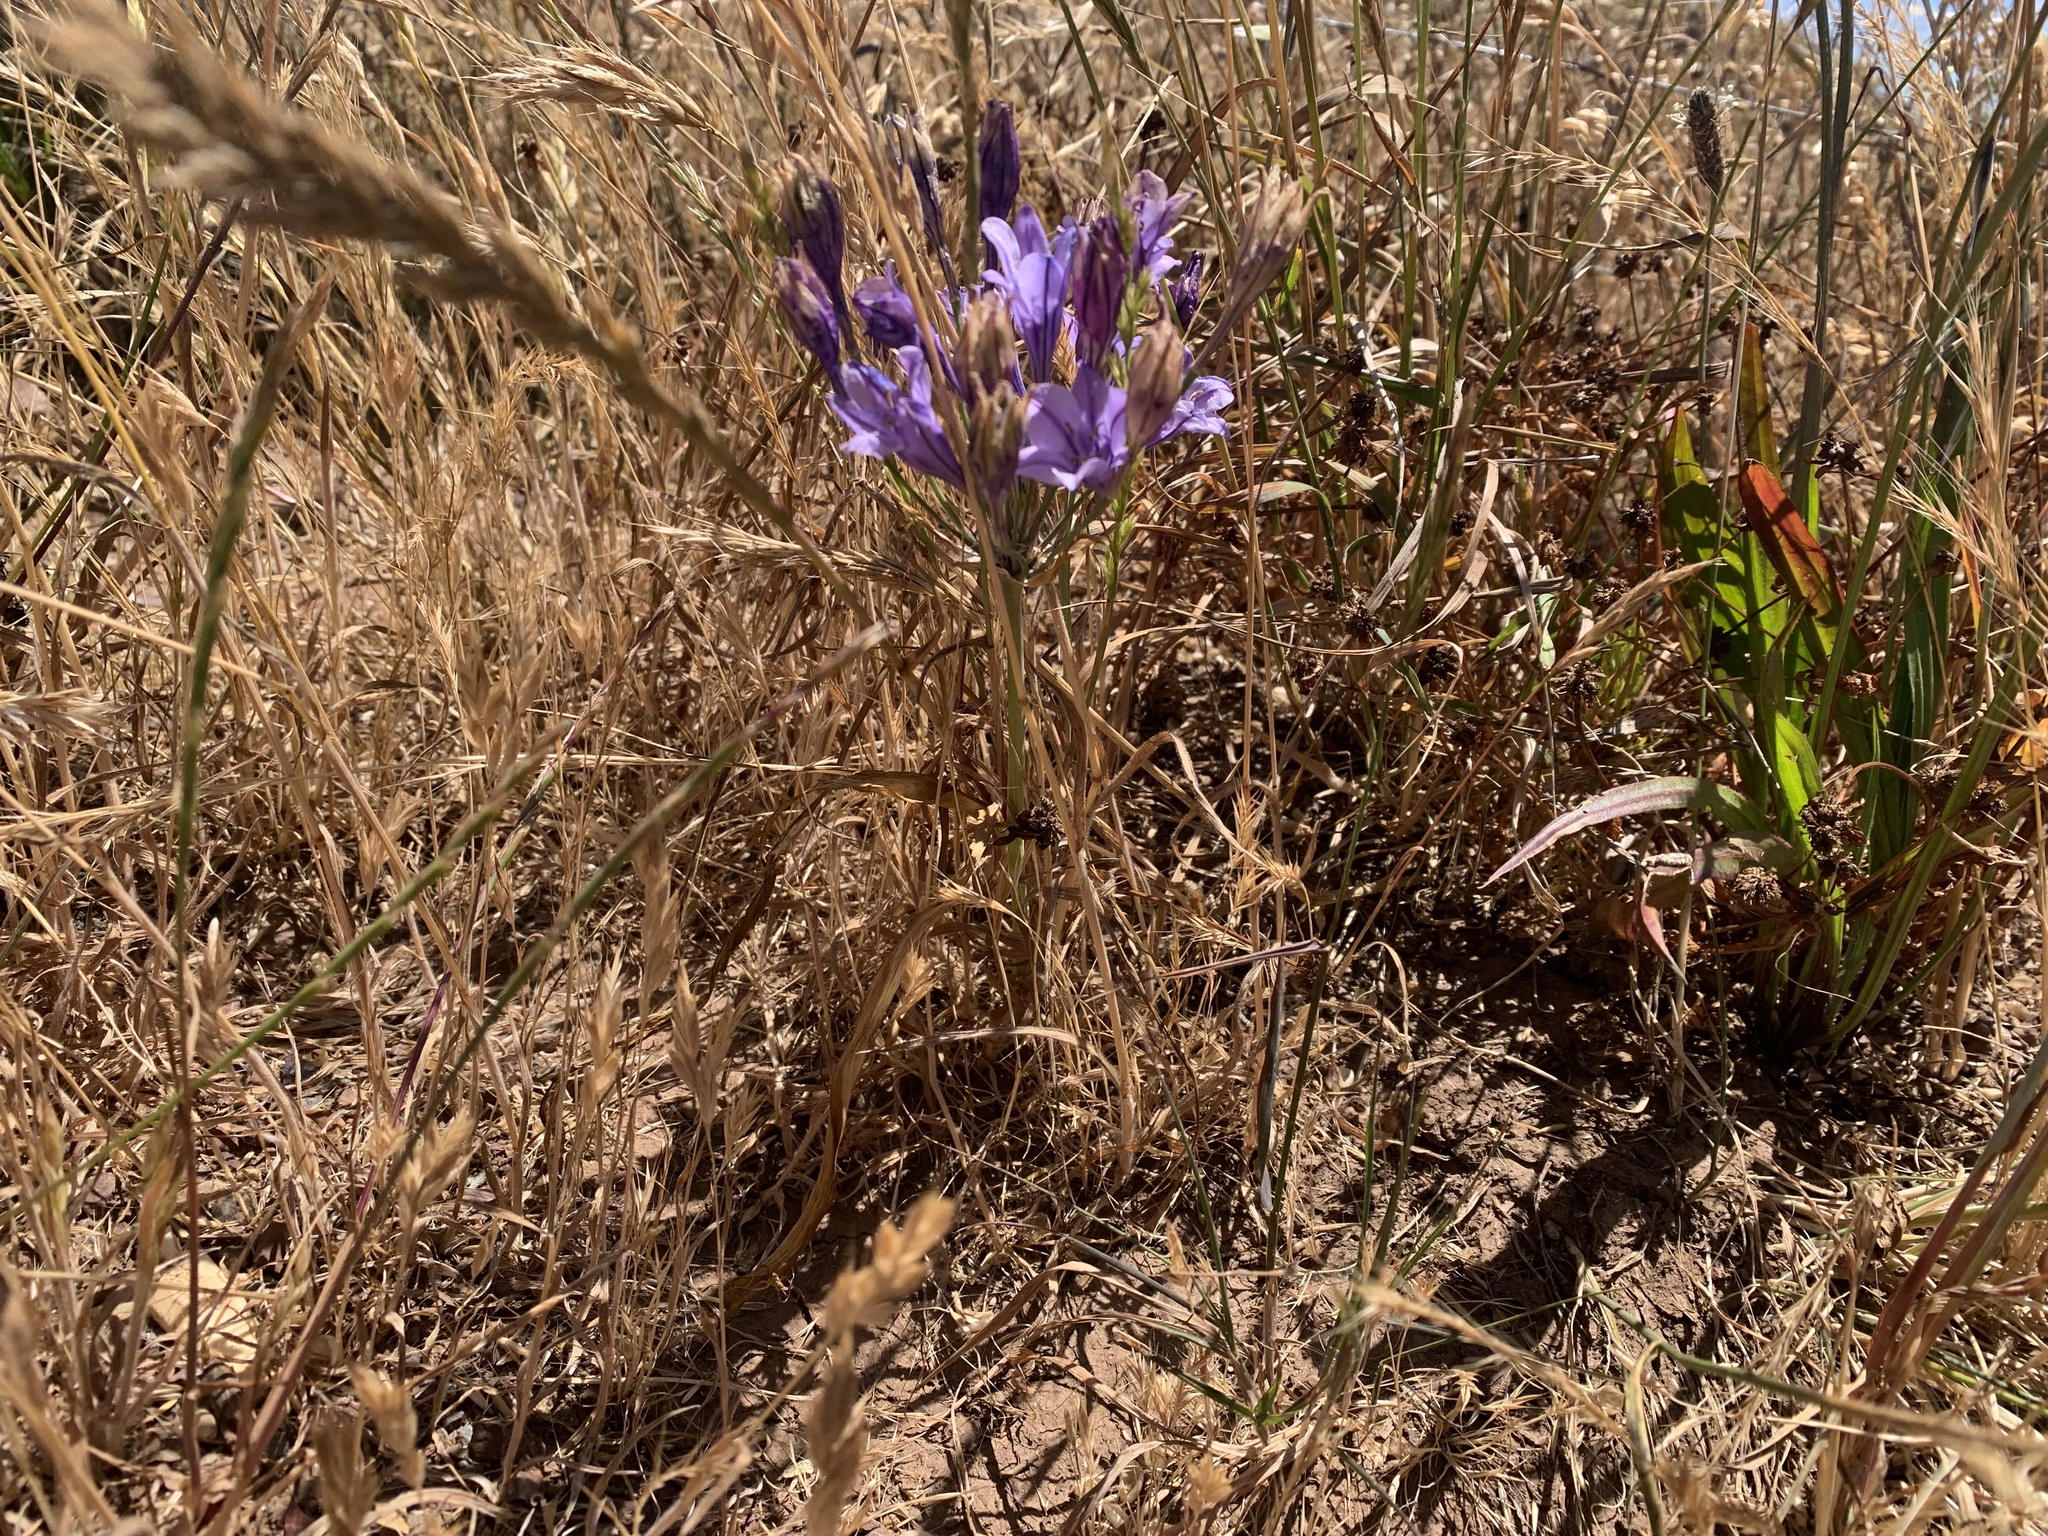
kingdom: Plantae
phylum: Tracheophyta
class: Liliopsida
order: Asparagales
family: Asparagaceae
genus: Triteleia
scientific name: Triteleia laxa
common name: Triplet-lily
